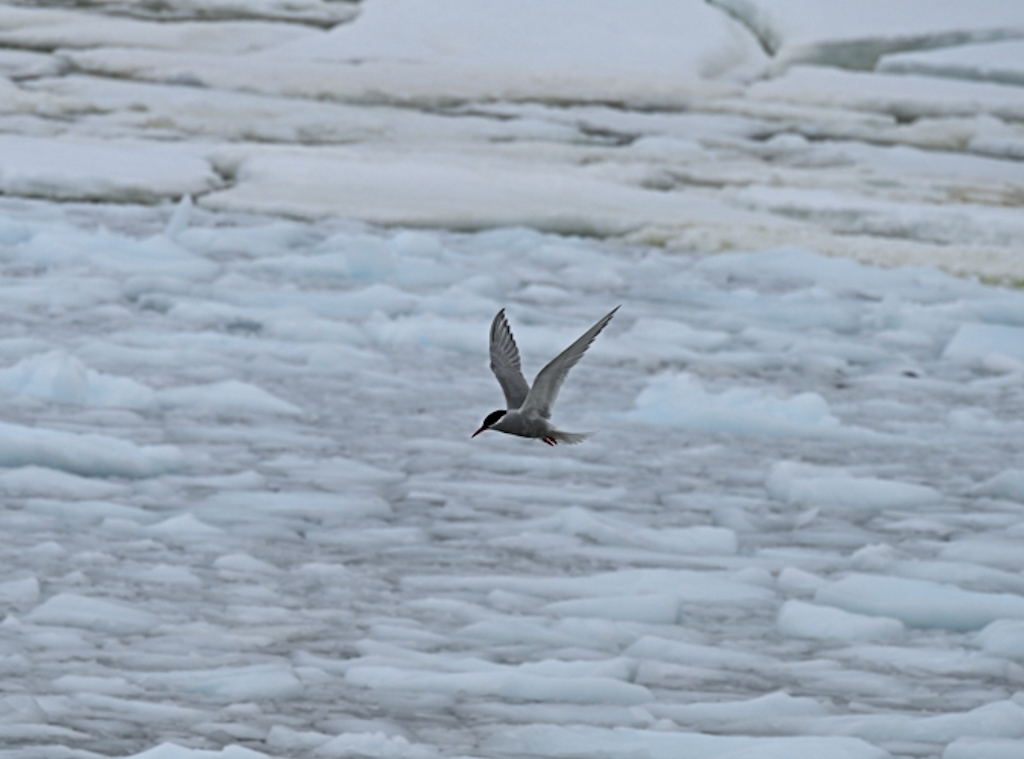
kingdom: Animalia
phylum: Chordata
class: Aves
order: Charadriiformes
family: Laridae
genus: Sterna
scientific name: Sterna vittata
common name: Antarctic tern
